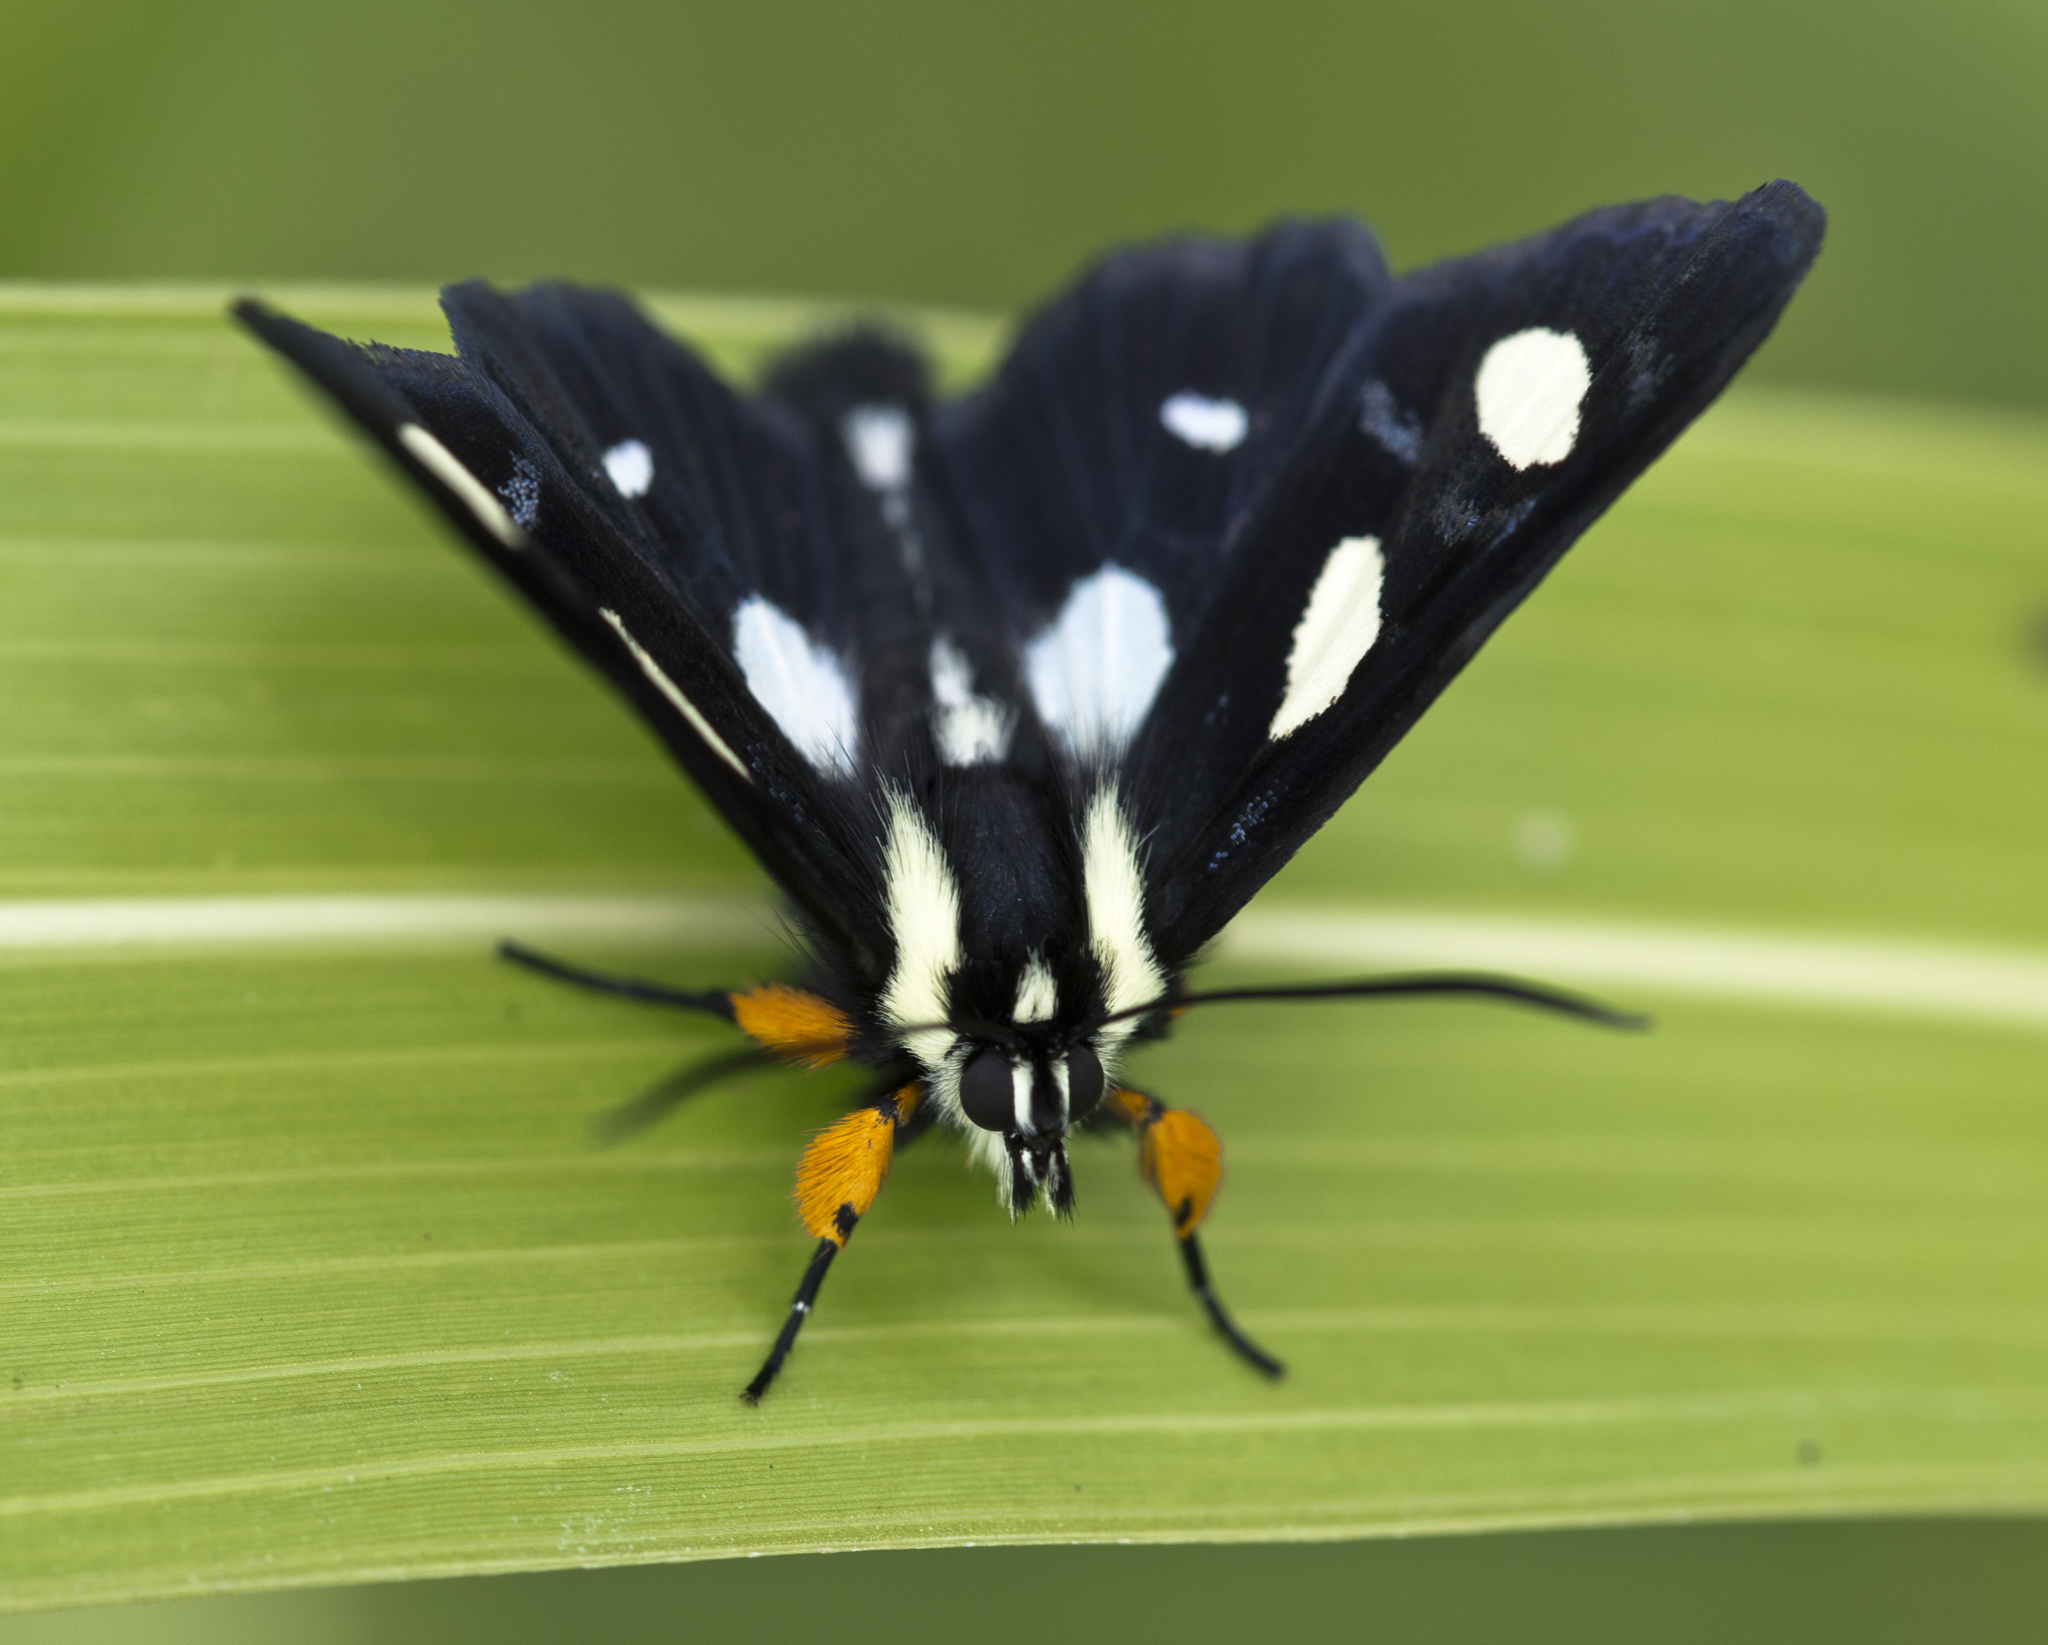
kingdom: Animalia
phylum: Arthropoda
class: Insecta
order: Lepidoptera
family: Noctuidae
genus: Alypia
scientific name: Alypia octomaculata
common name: Eight-spotted forester
